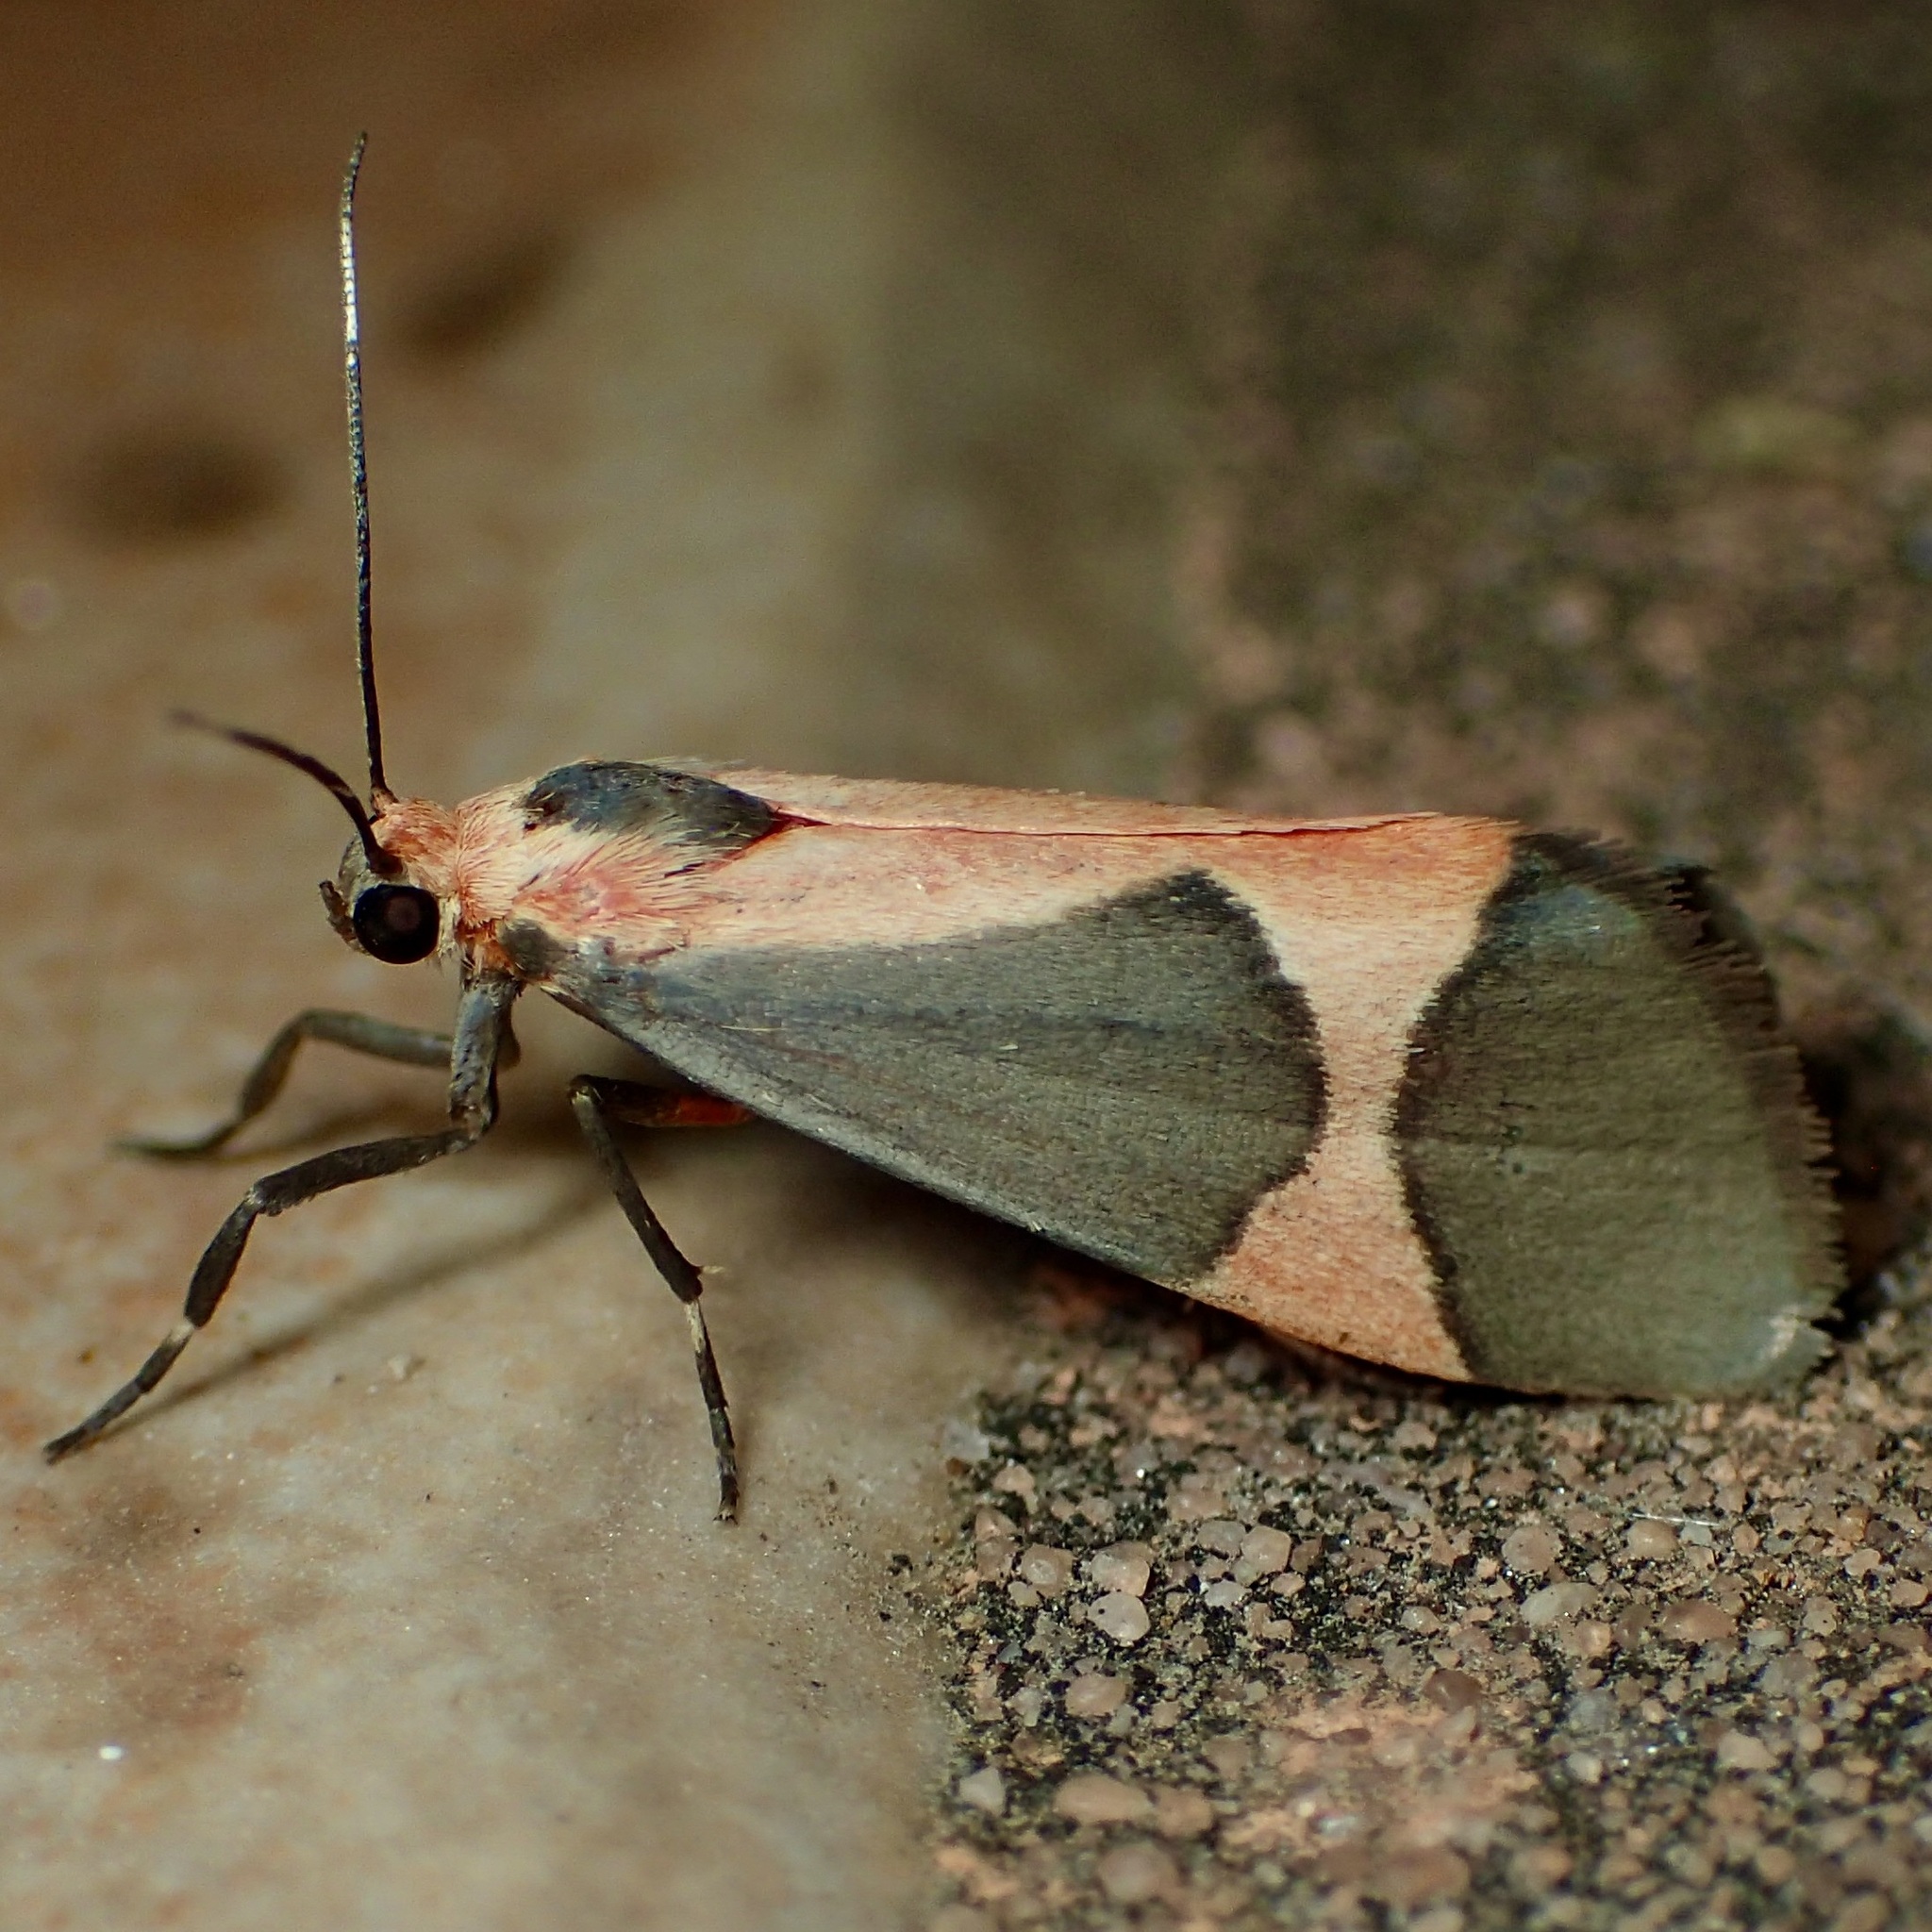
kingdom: Animalia
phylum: Arthropoda
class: Insecta
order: Lepidoptera
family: Erebidae
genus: Cisthene
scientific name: Cisthene martini
